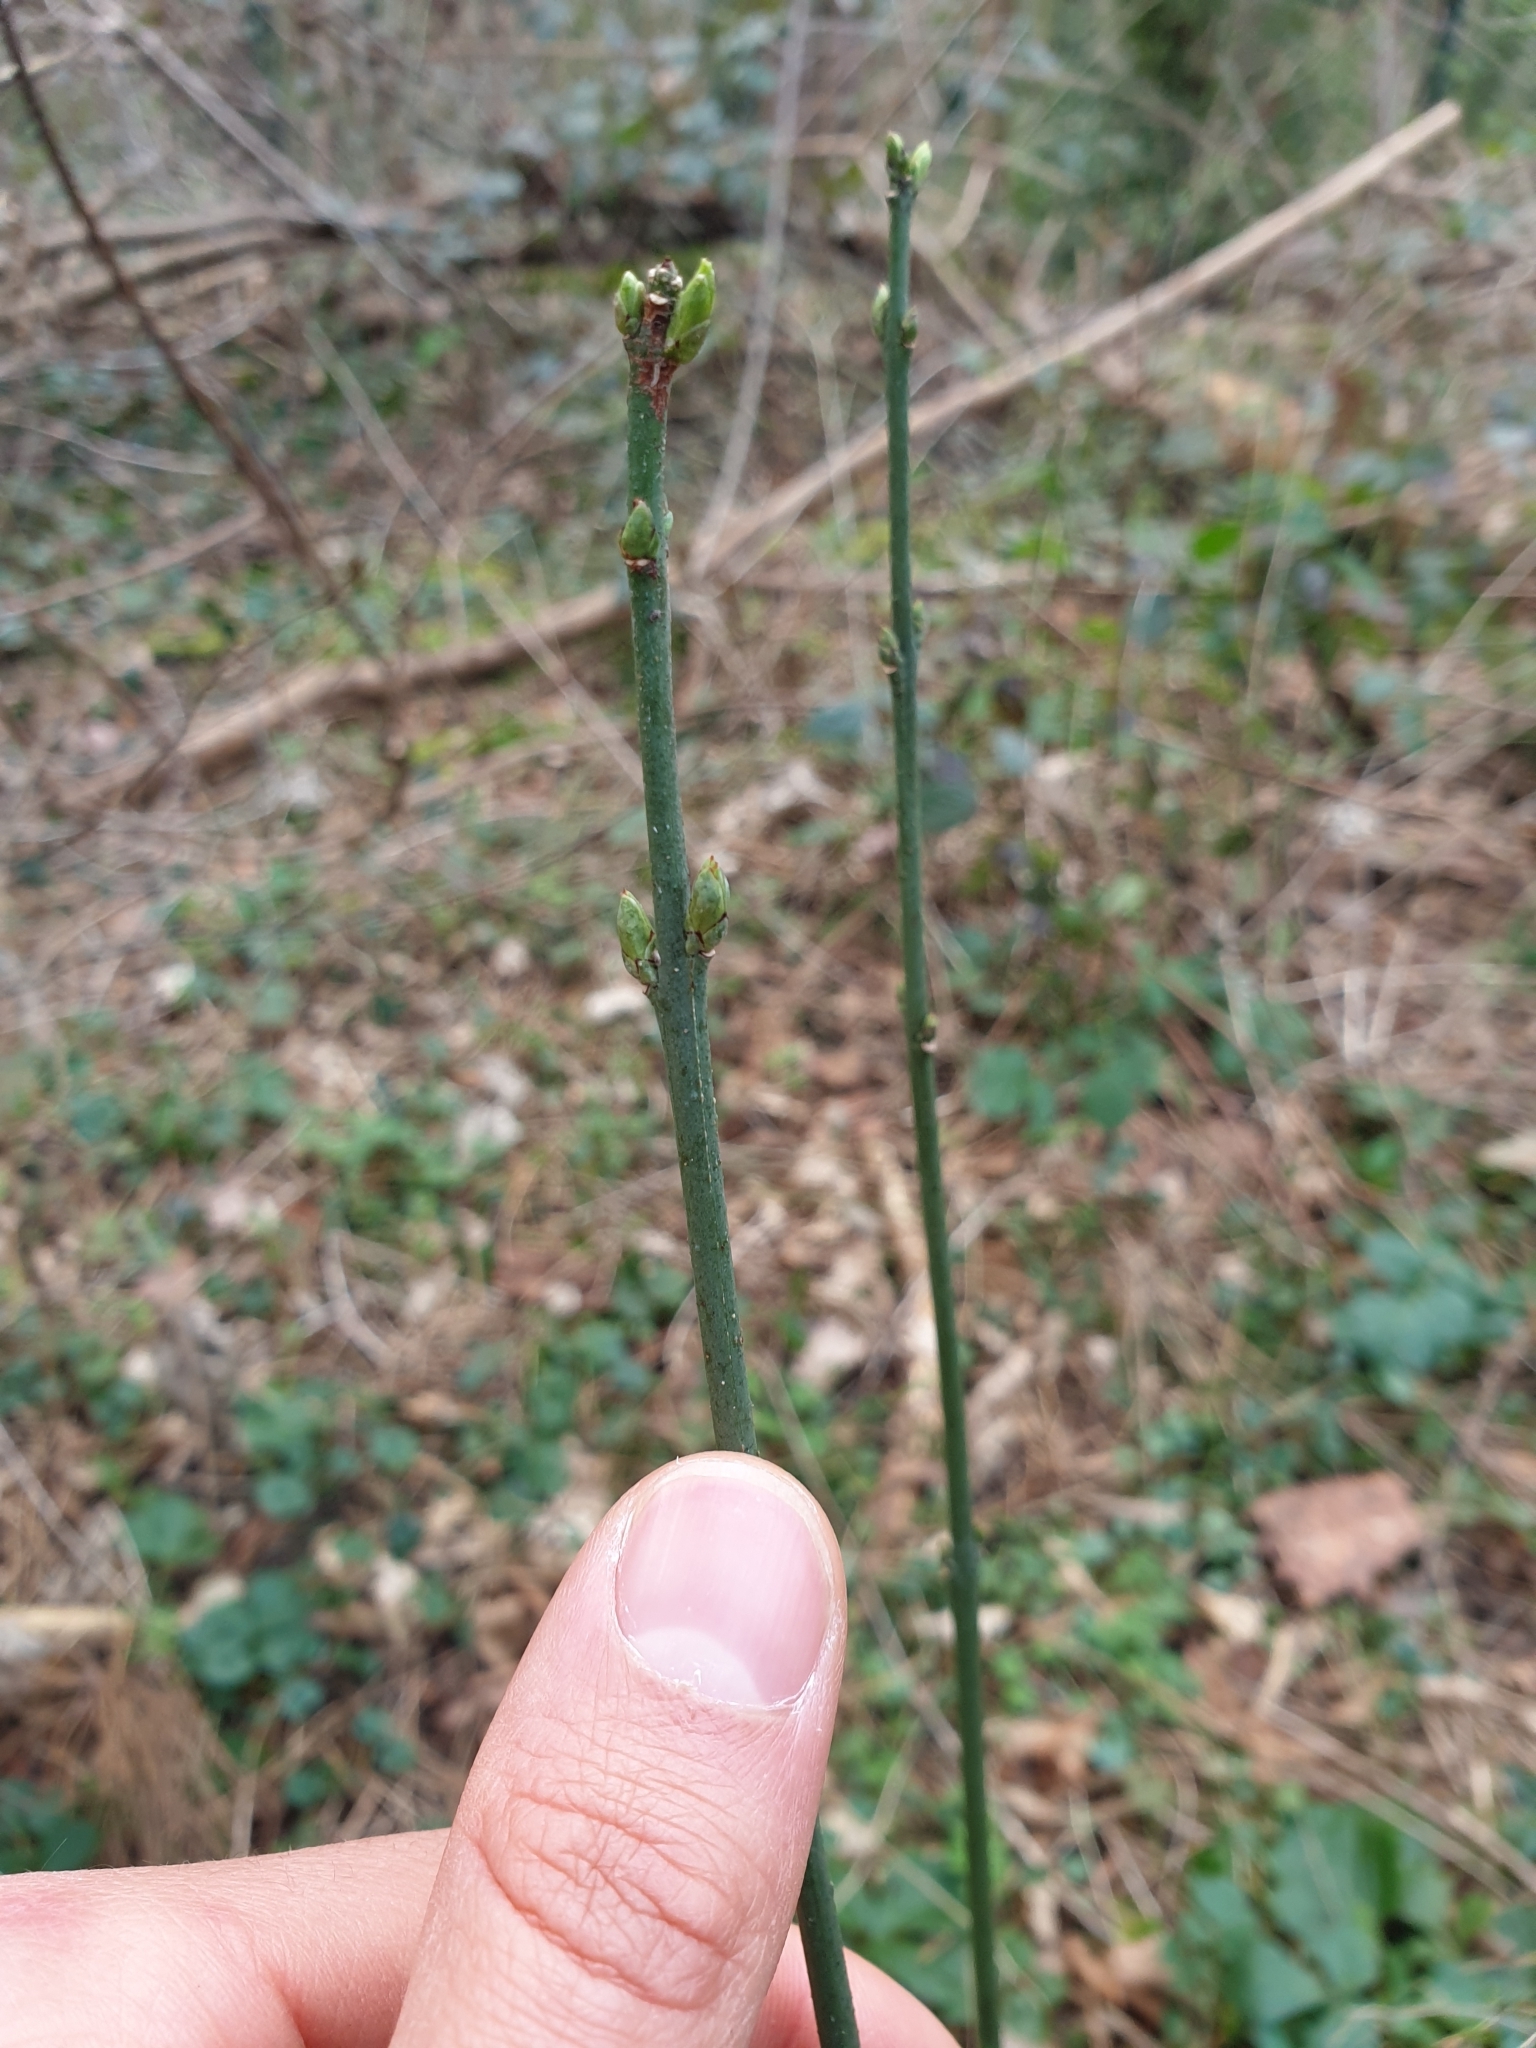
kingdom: Plantae
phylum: Tracheophyta
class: Magnoliopsida
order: Celastrales
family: Celastraceae
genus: Euonymus
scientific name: Euonymus europaeus
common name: Spindle
